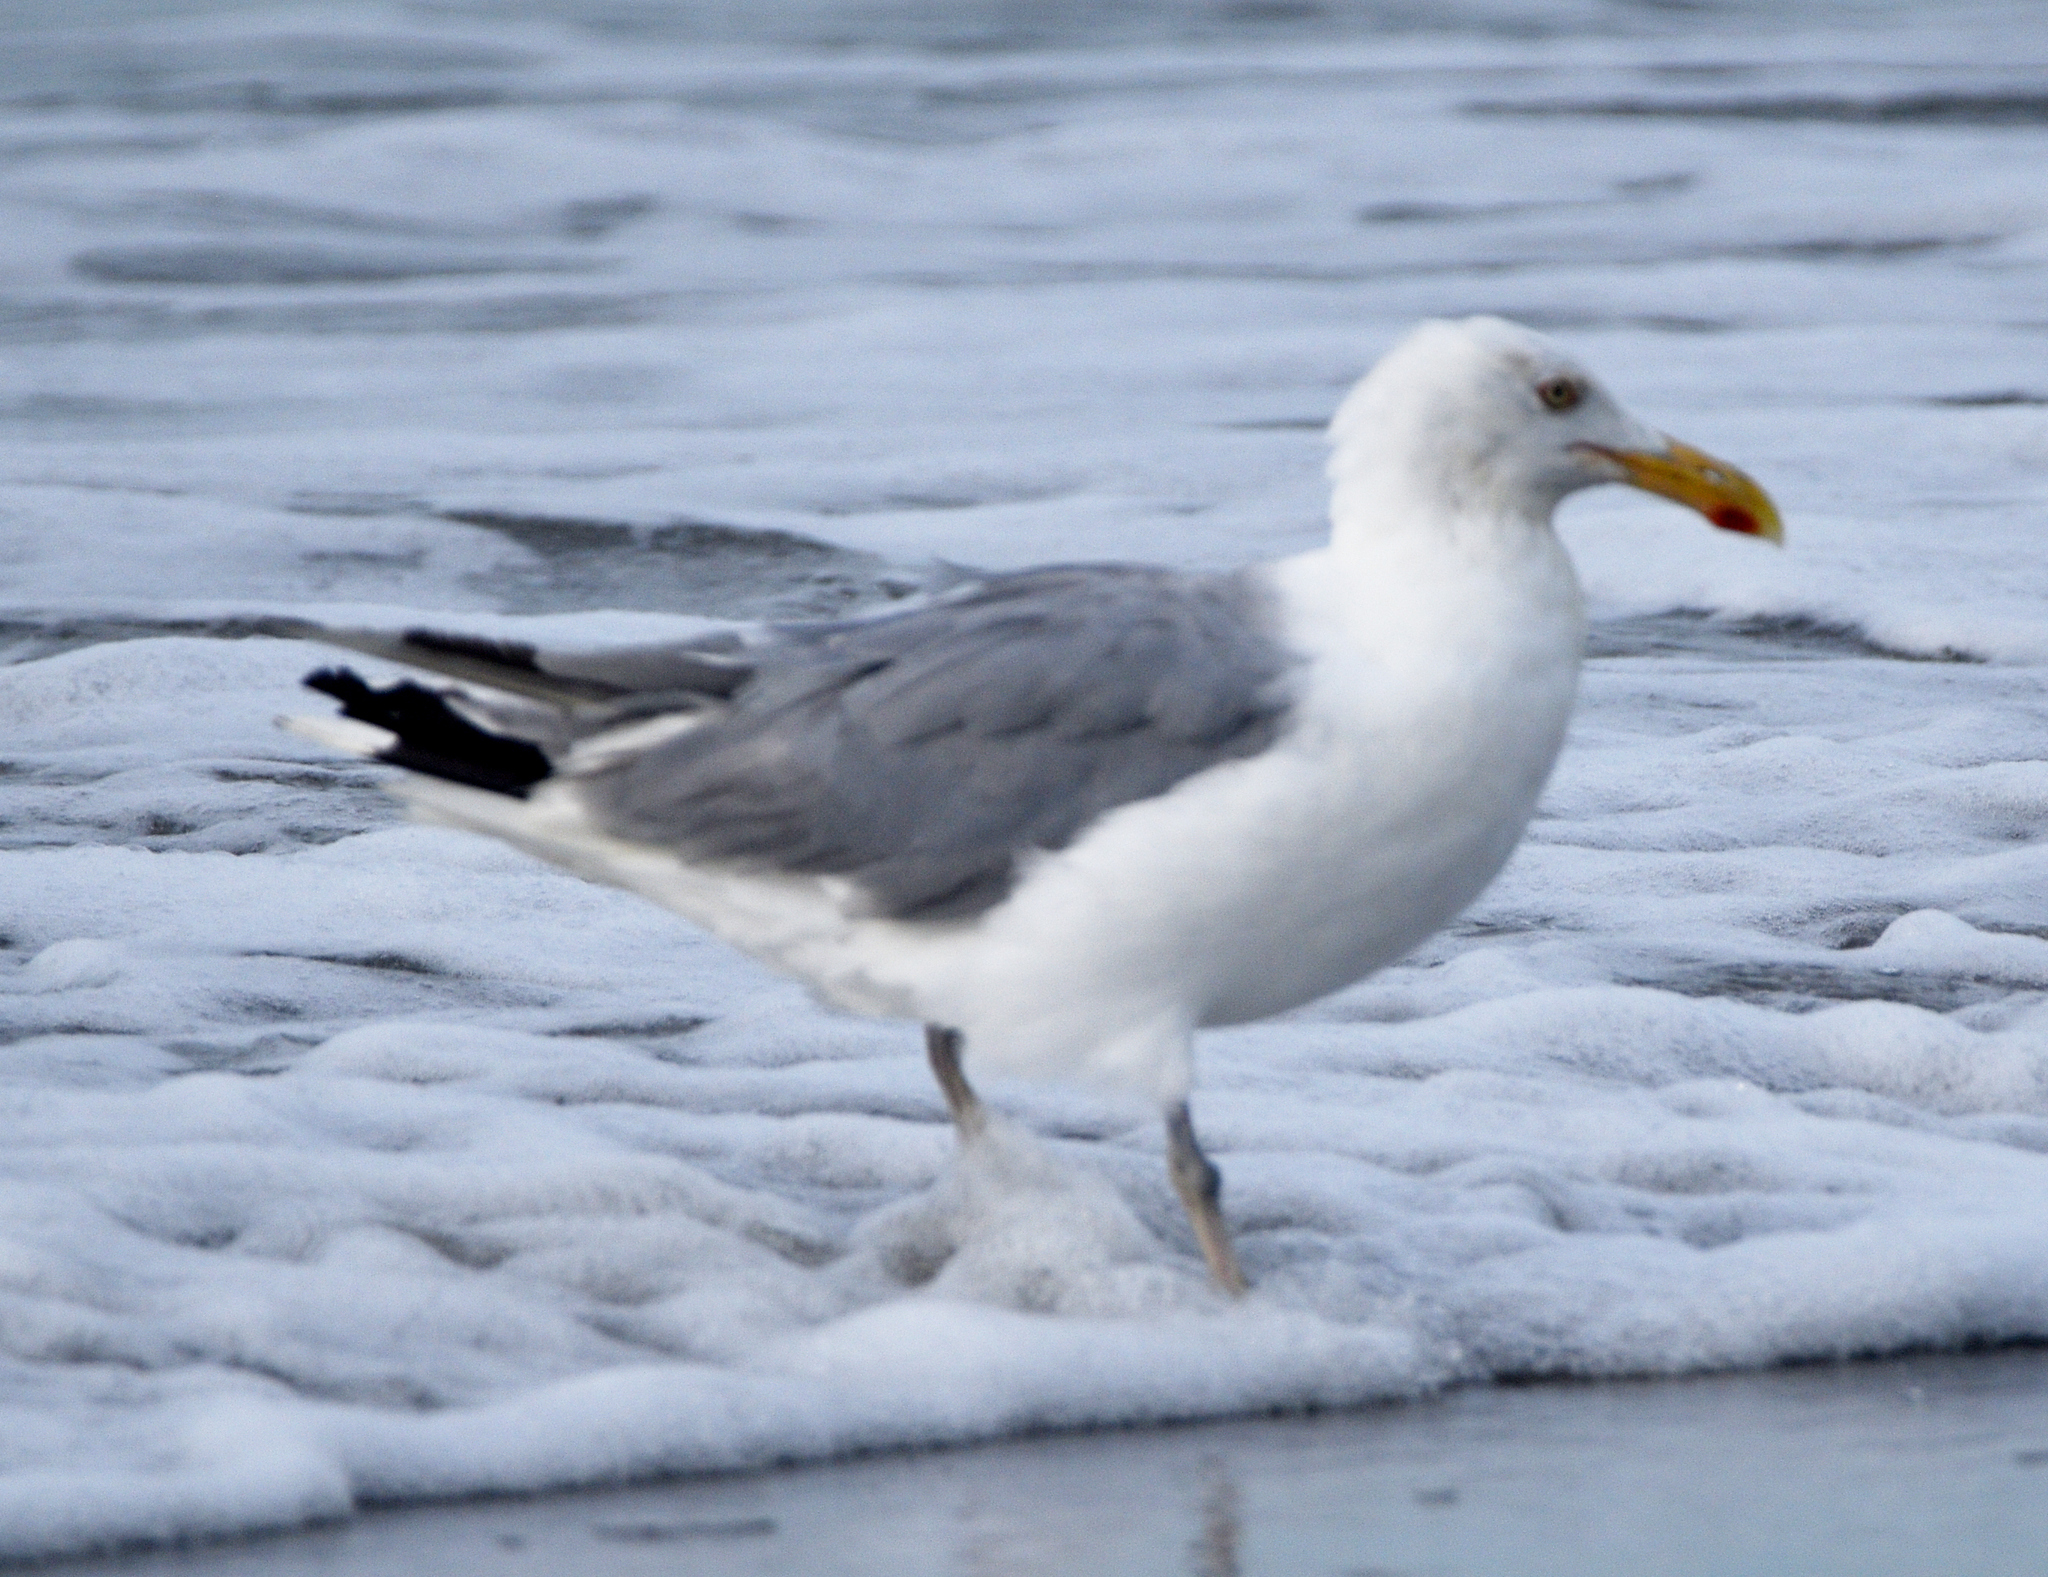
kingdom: Animalia
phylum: Chordata
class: Aves
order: Charadriiformes
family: Laridae
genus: Larus
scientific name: Larus argentatus
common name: Herring gull
